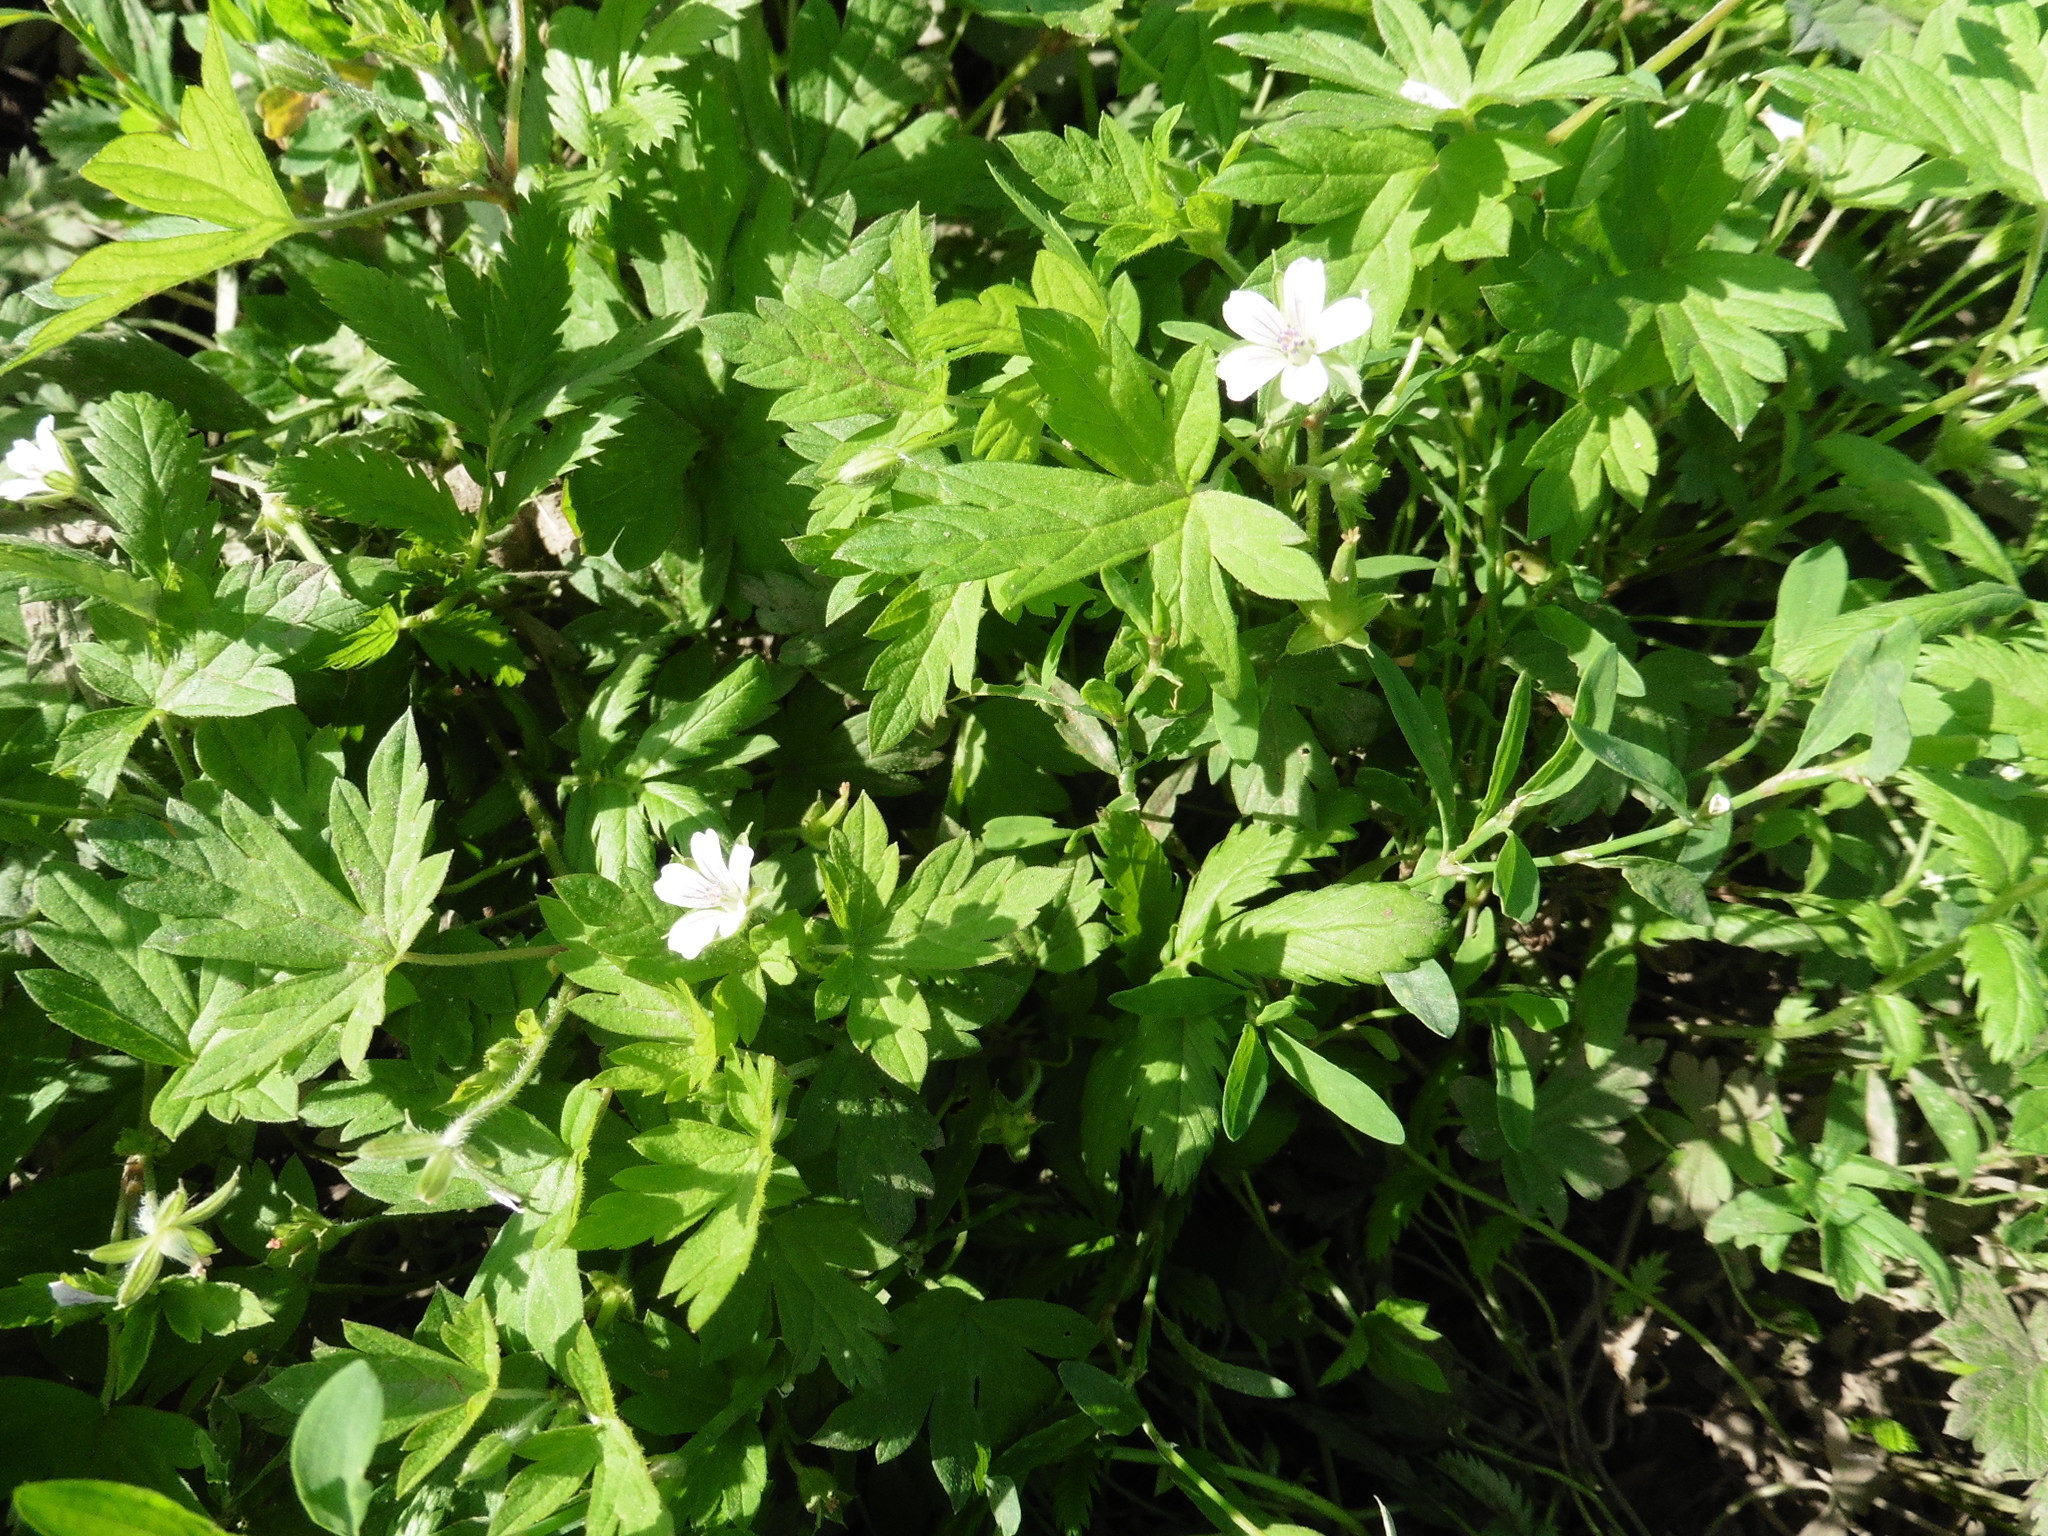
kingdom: Plantae
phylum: Tracheophyta
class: Magnoliopsida
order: Geraniales
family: Geraniaceae
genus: Geranium
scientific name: Geranium sibiricum
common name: Siberian crane's-bill
